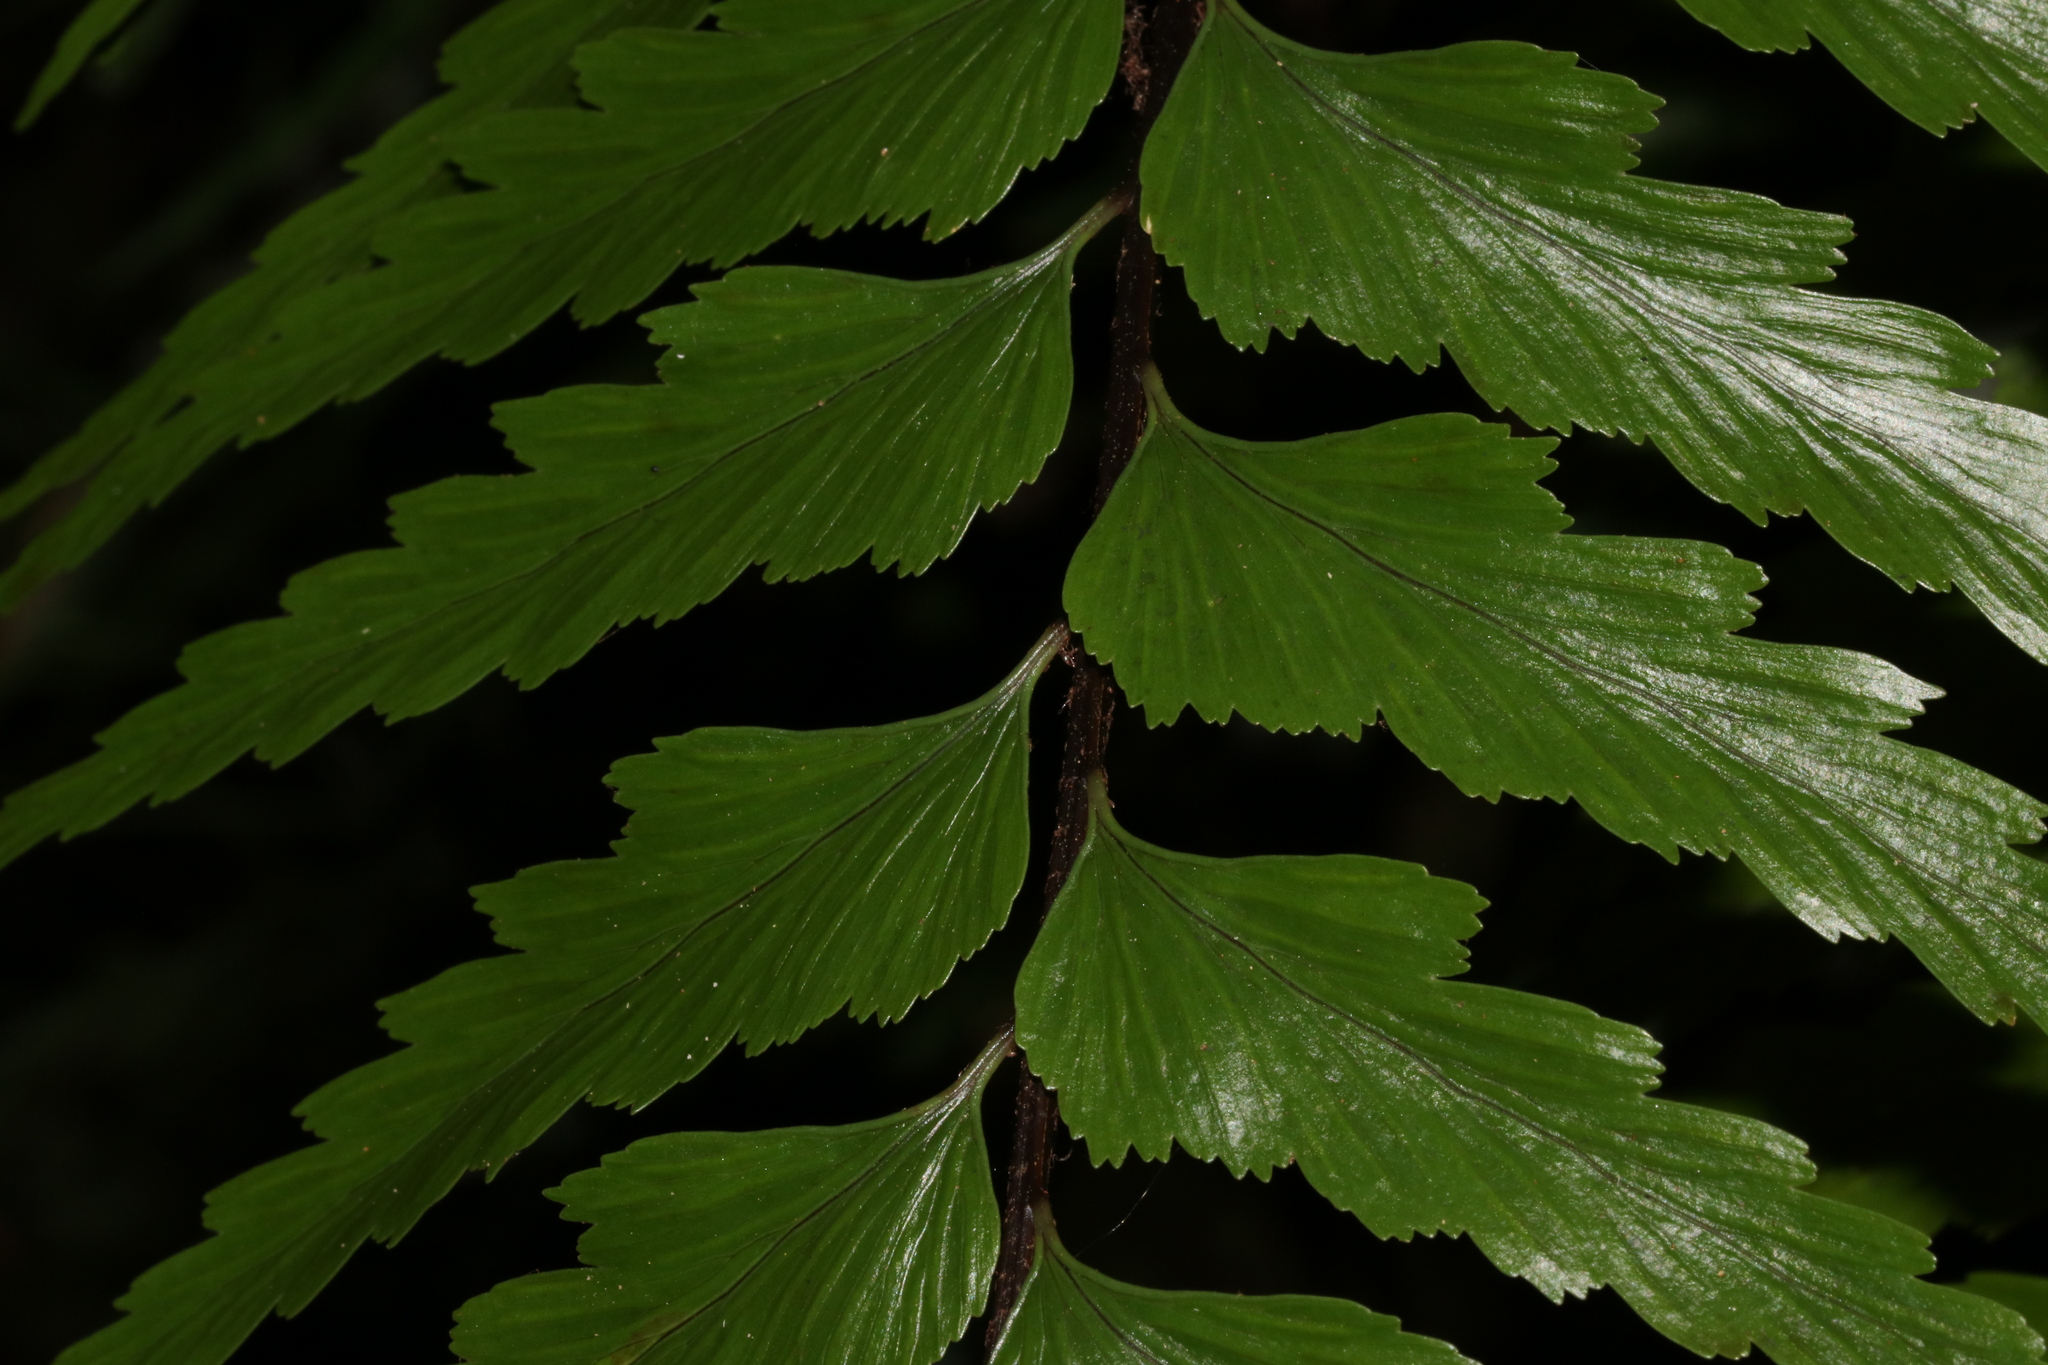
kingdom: Plantae
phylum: Tracheophyta
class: Polypodiopsida
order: Polypodiales
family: Aspleniaceae
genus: Asplenium
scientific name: Asplenium polyodon
